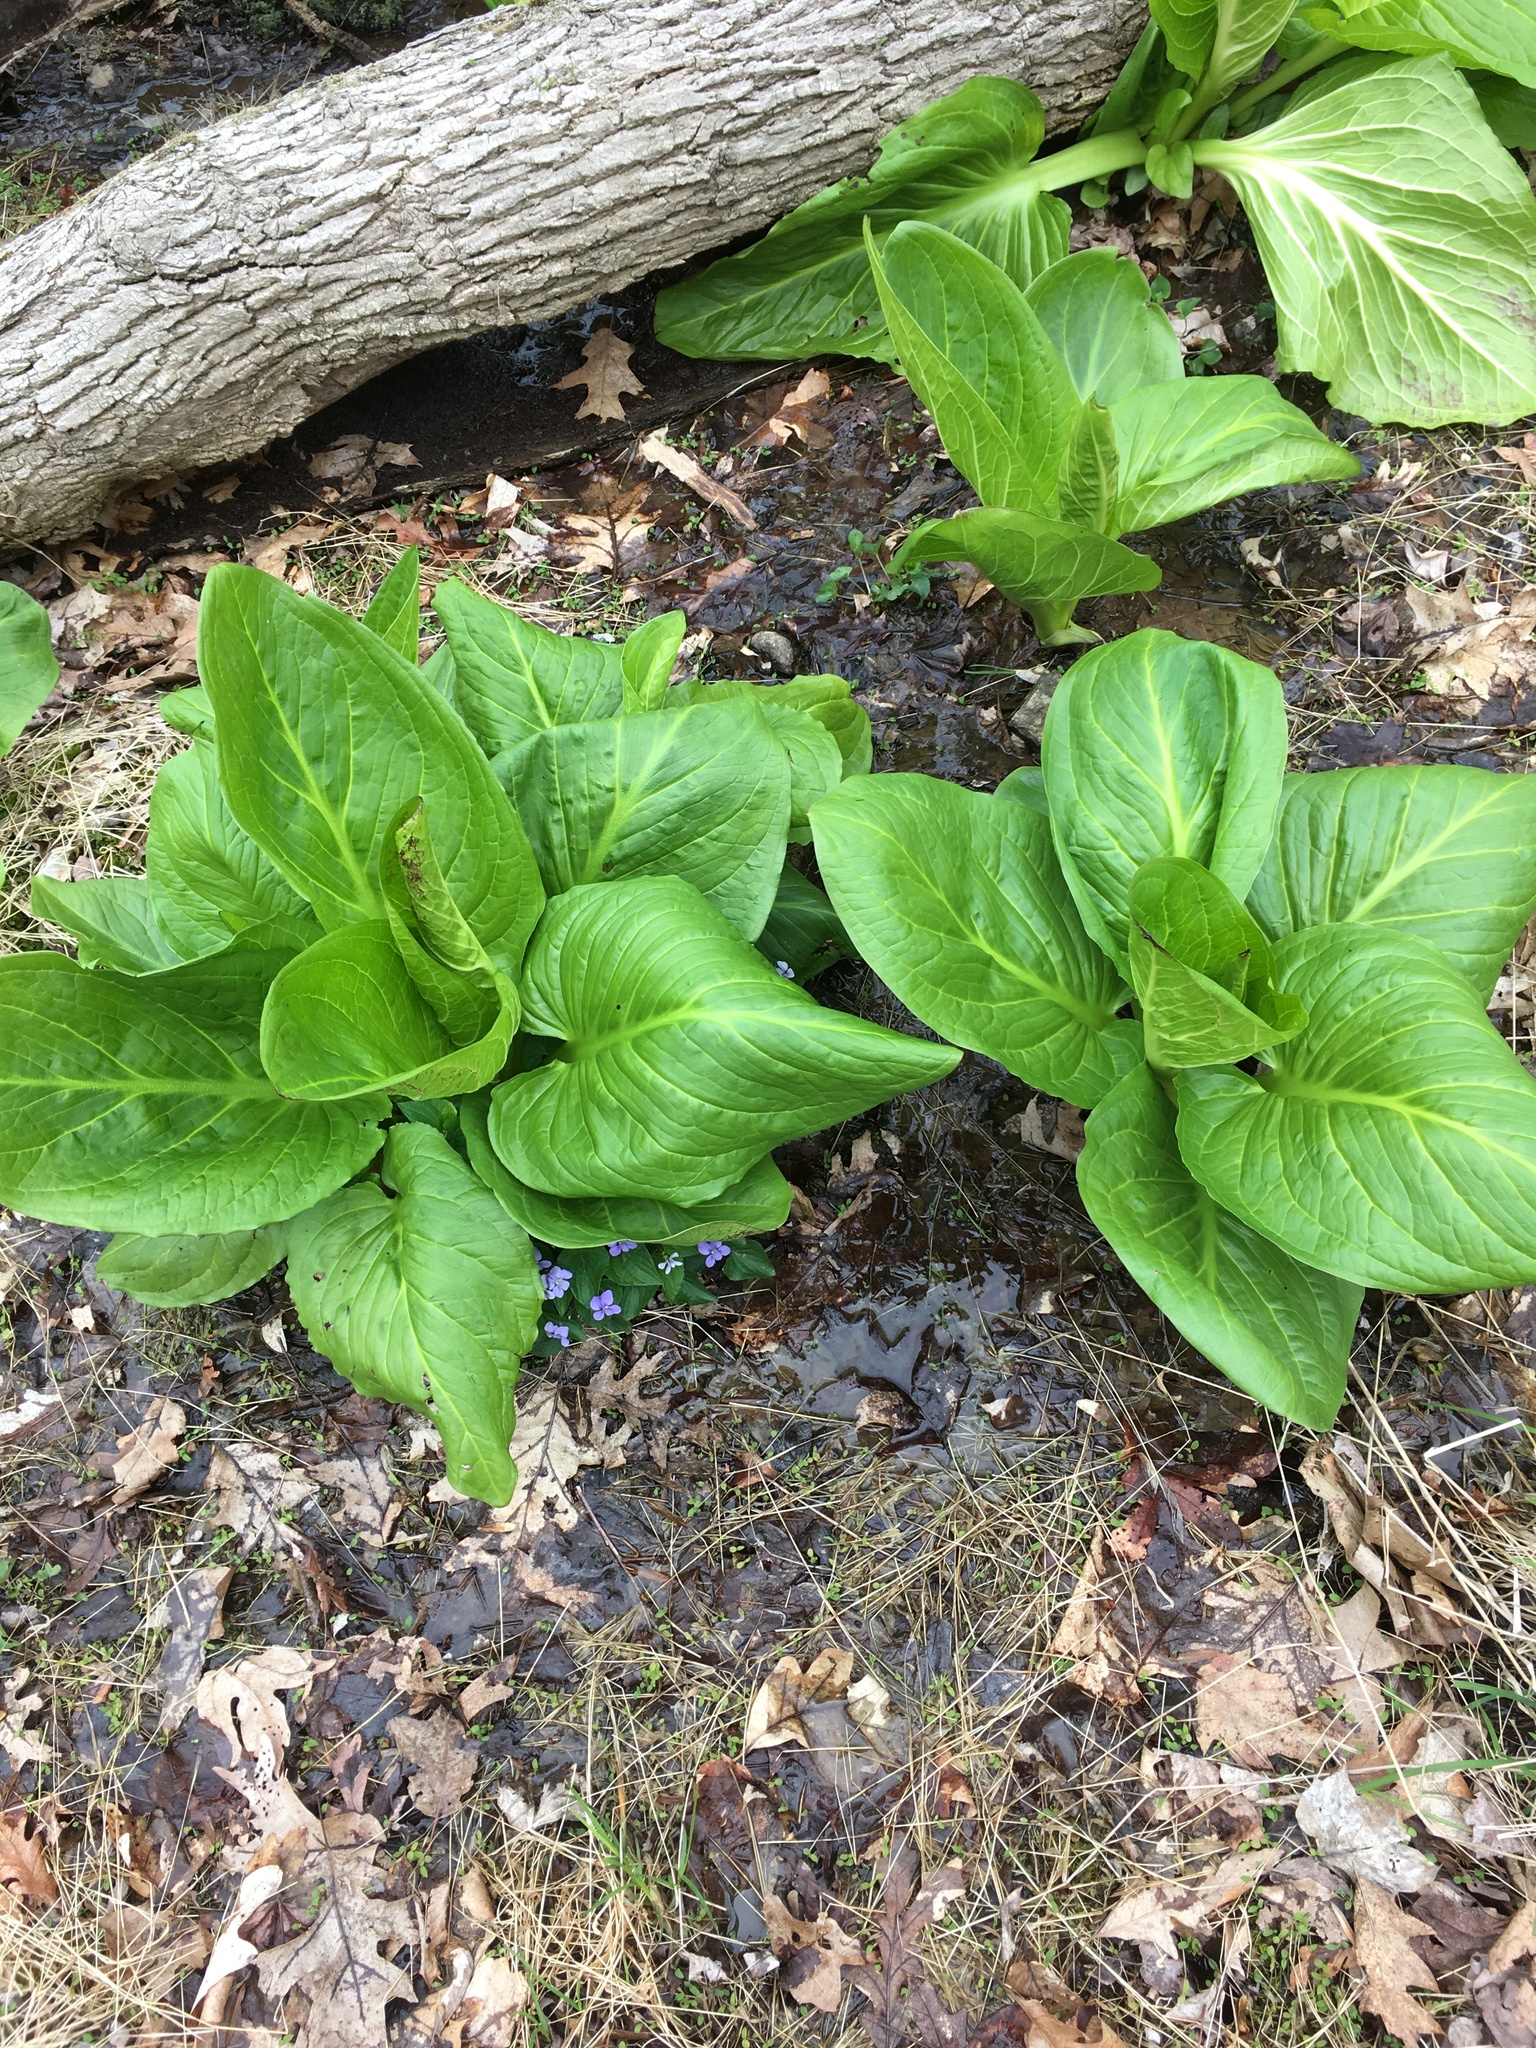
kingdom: Plantae
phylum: Tracheophyta
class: Liliopsida
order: Alismatales
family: Araceae
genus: Symplocarpus
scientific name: Symplocarpus foetidus
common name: Eastern skunk cabbage
